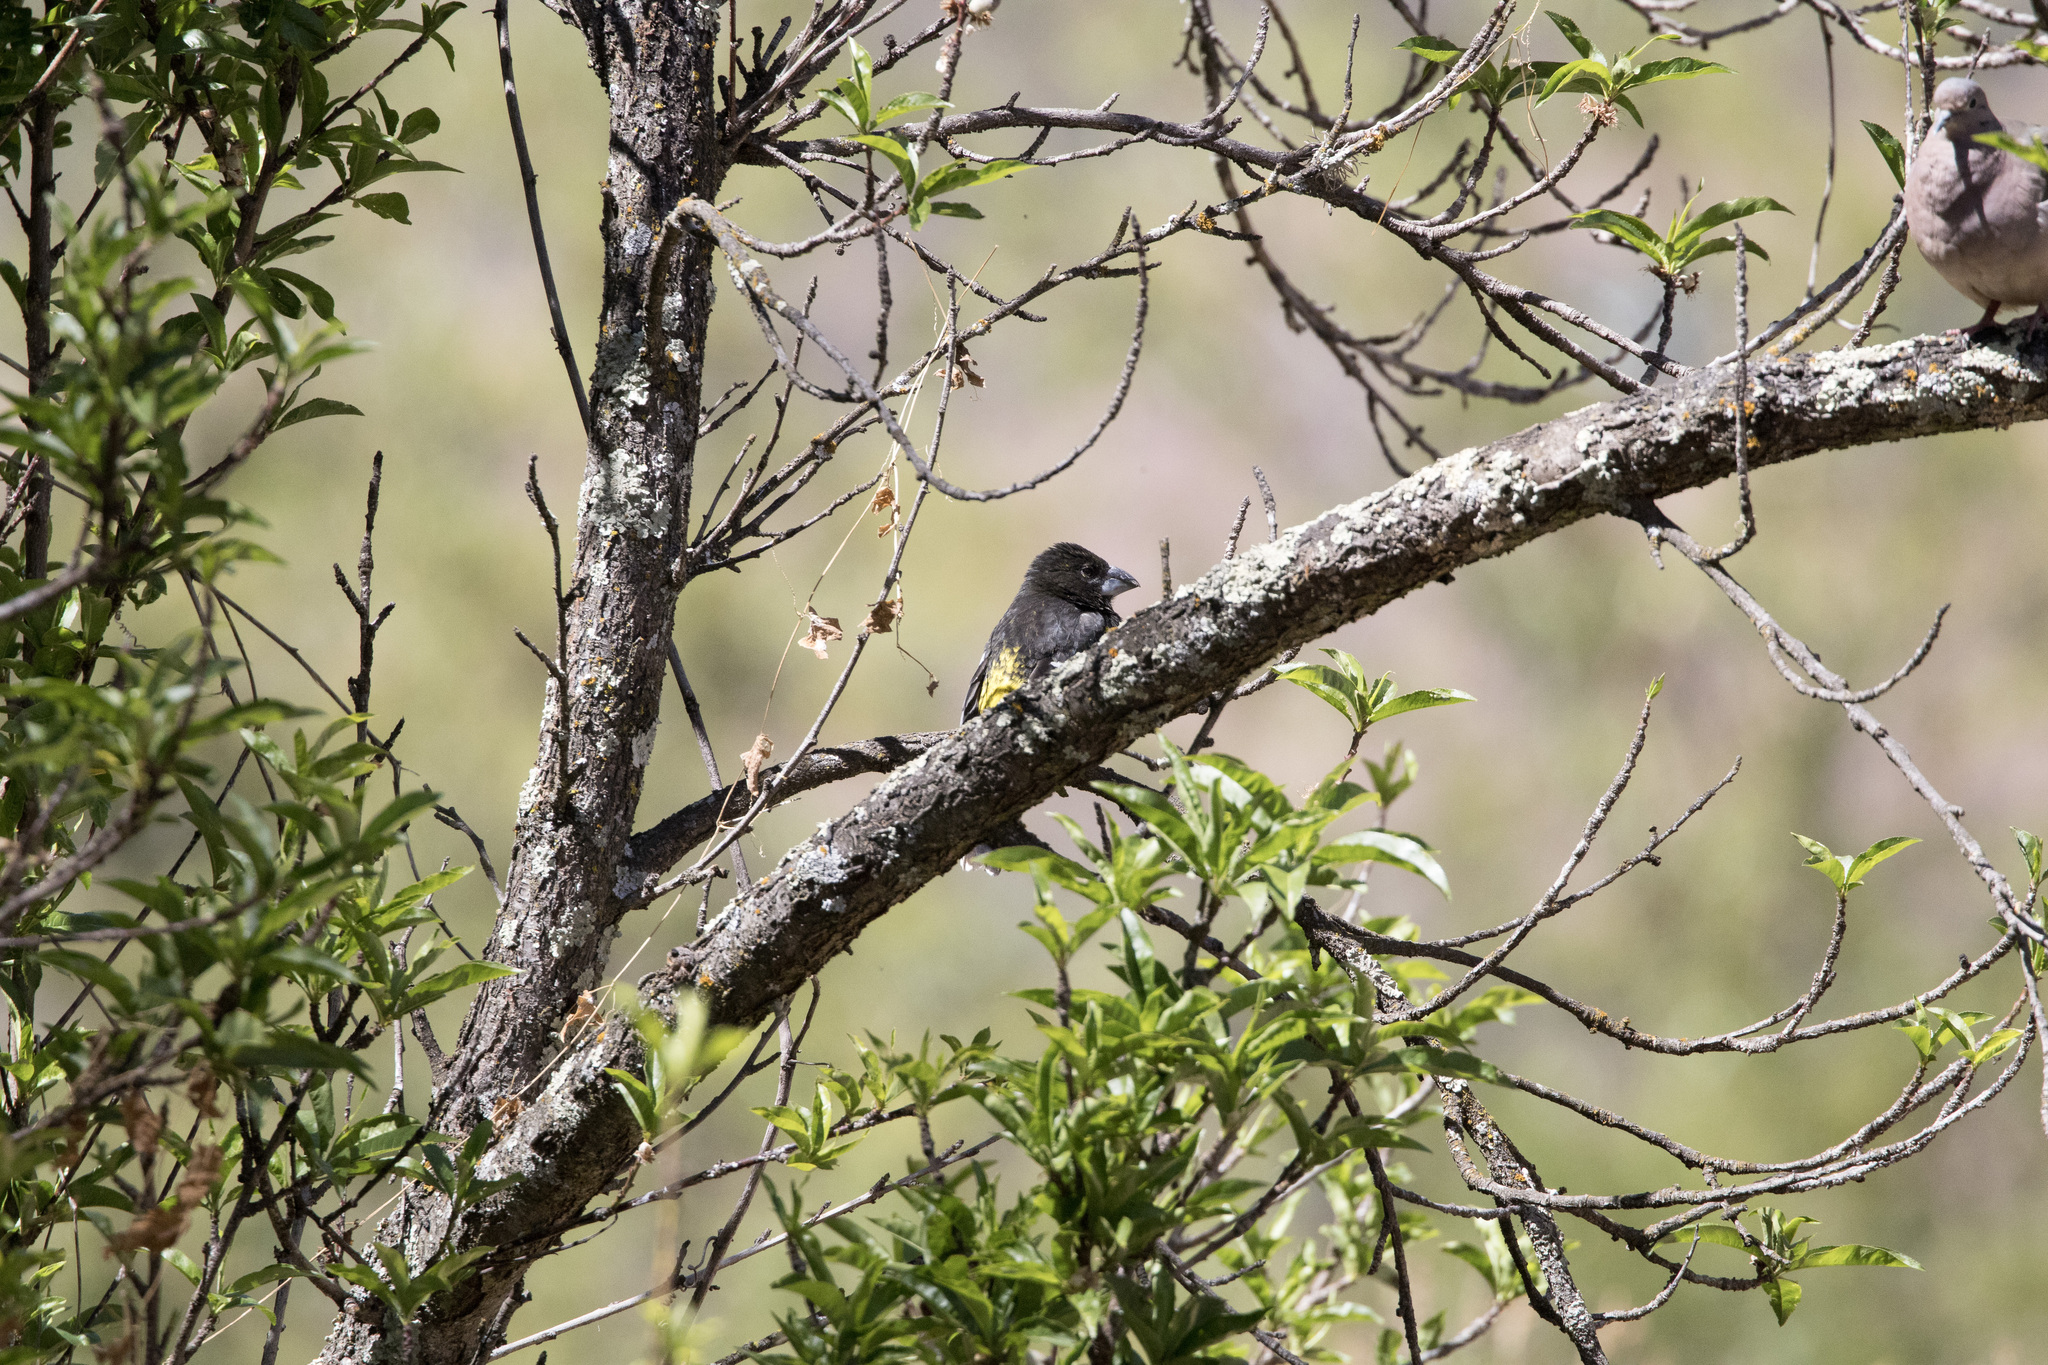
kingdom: Animalia
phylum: Chordata
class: Aves
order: Passeriformes
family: Cardinalidae
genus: Pheucticus
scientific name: Pheucticus aureoventris
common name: Black-backed grosbeak
